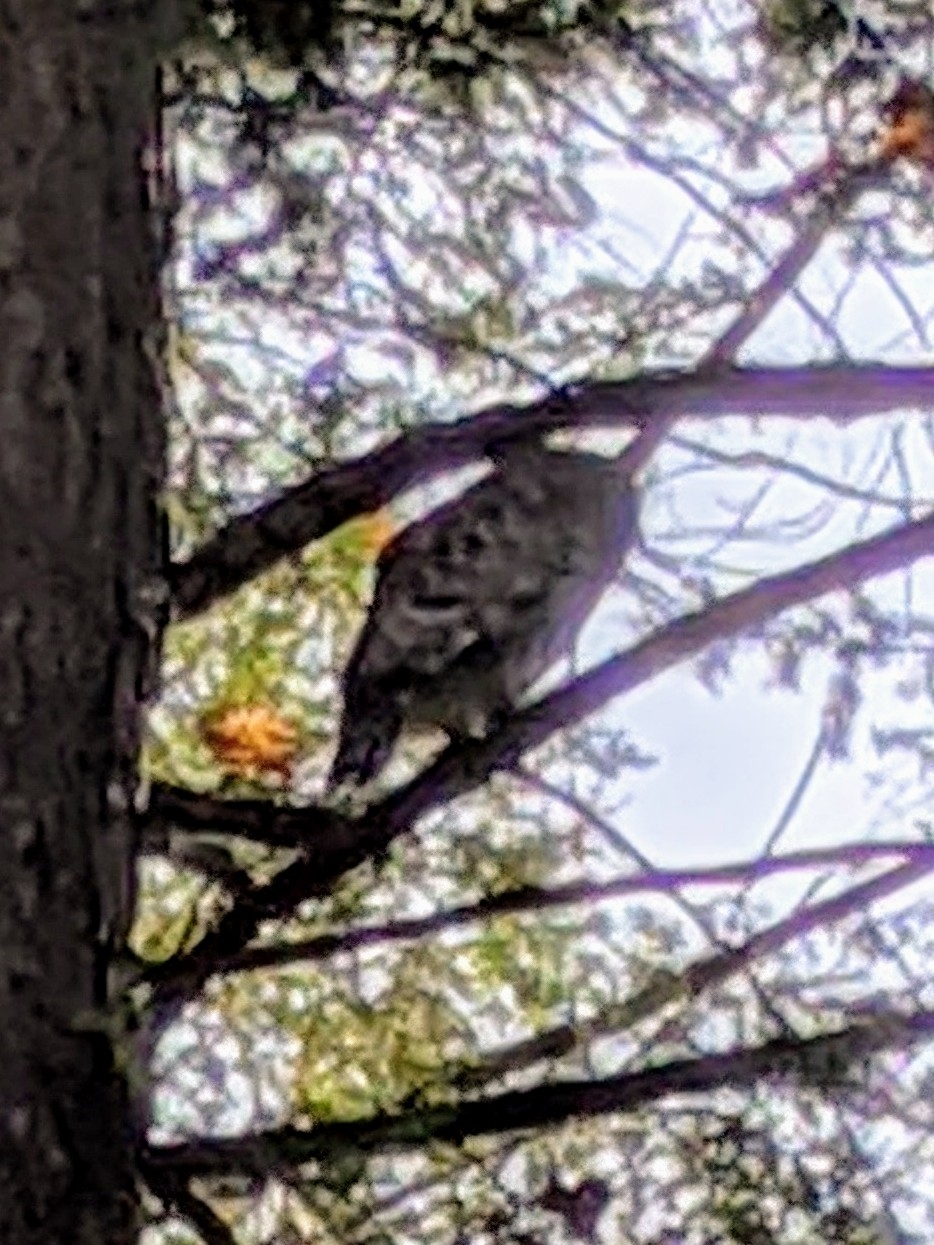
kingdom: Animalia
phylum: Chordata
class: Aves
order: Strigiformes
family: Strigidae
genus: Strix
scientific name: Strix varia
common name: Barred owl
